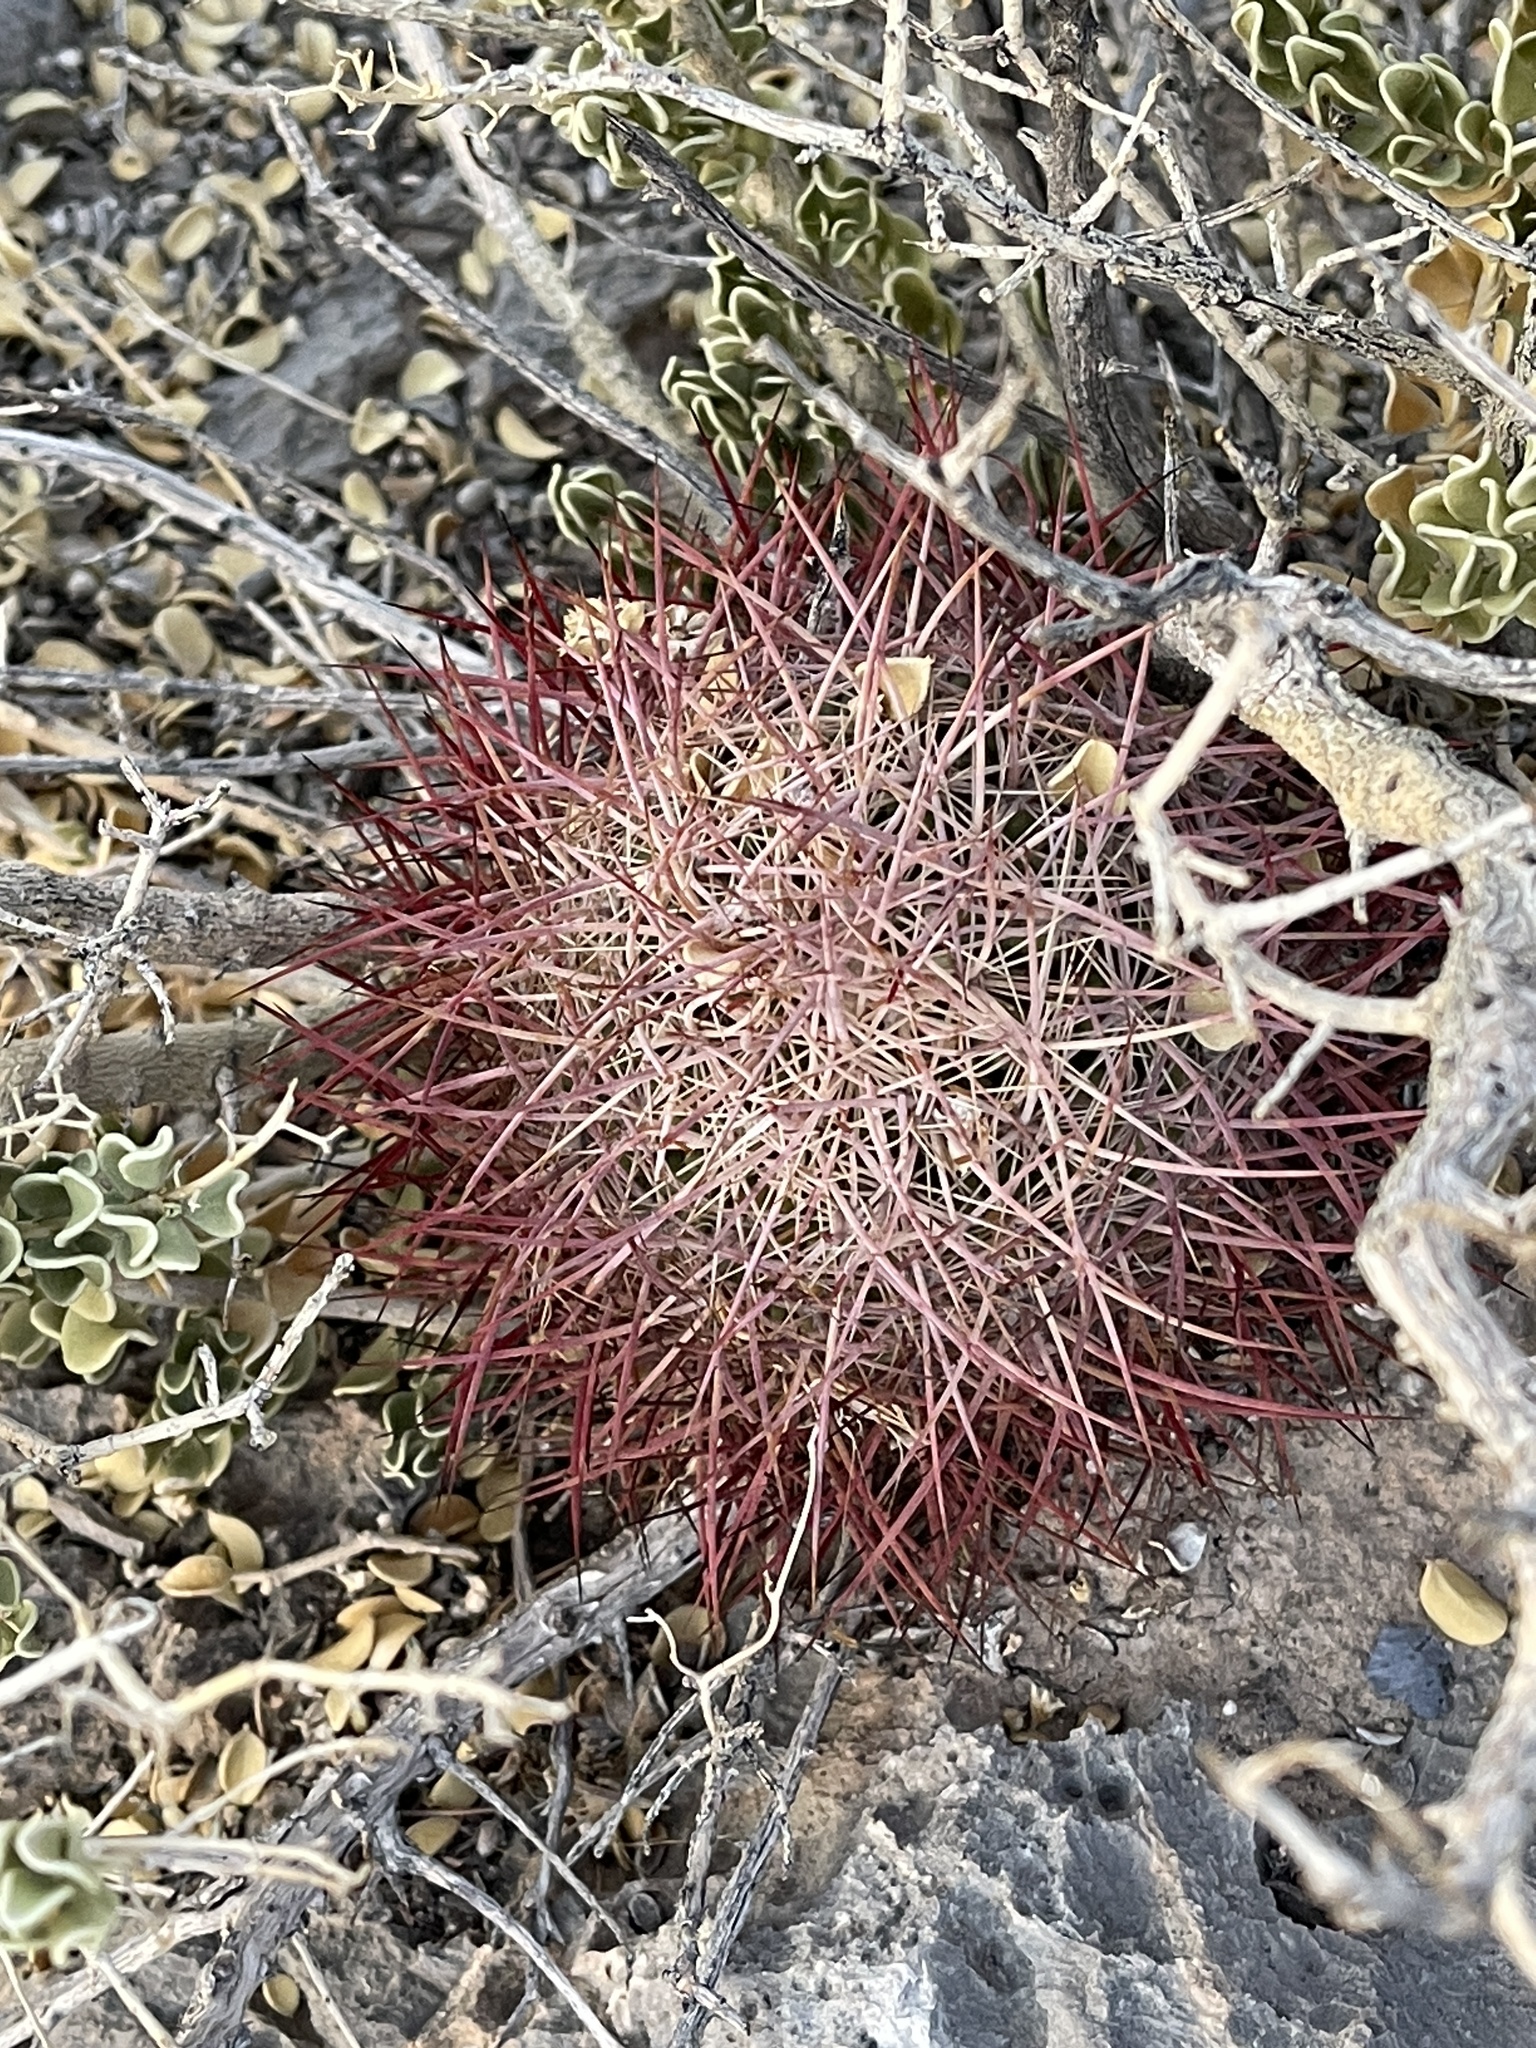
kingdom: Plantae
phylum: Tracheophyta
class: Magnoliopsida
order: Caryophyllales
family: Cactaceae
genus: Sclerocactus
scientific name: Sclerocactus johnsonii
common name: Eight-spine fishhook cactus
